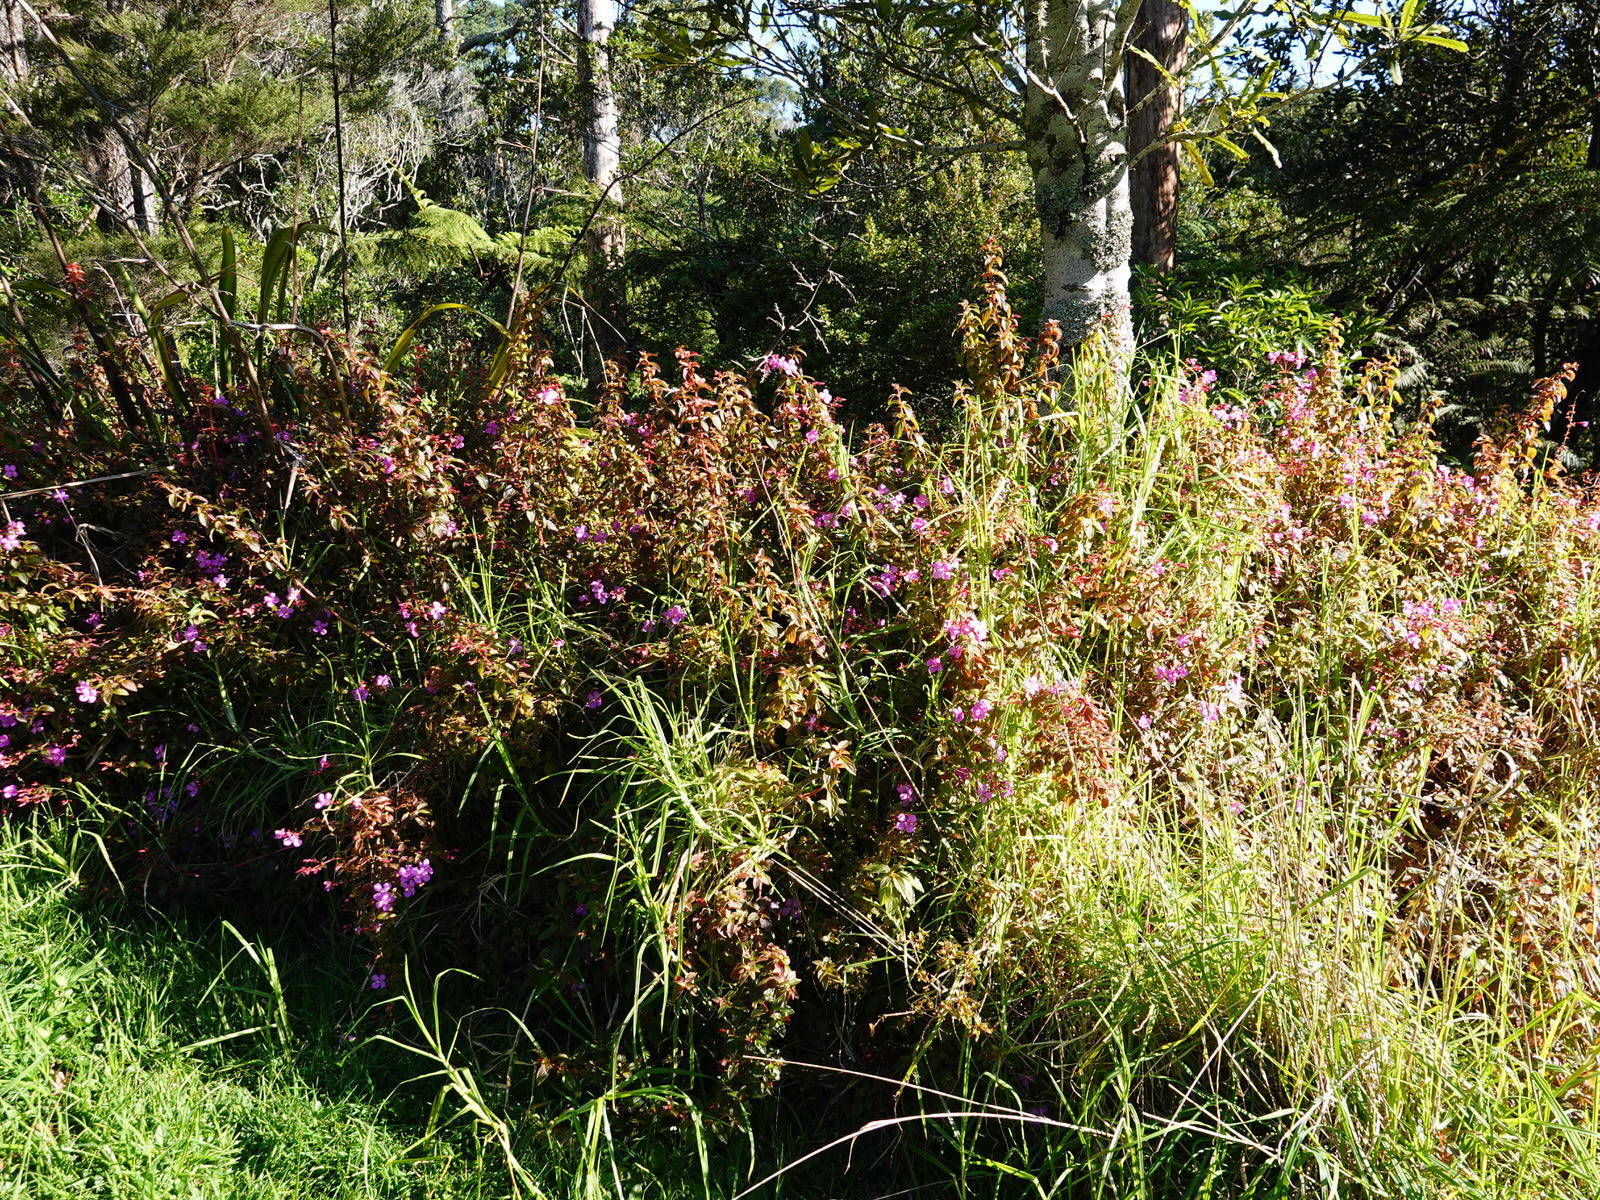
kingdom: Plantae
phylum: Tracheophyta
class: Magnoliopsida
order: Myrtales
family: Melastomataceae
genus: Heterocentron
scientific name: Heterocentron elegans
